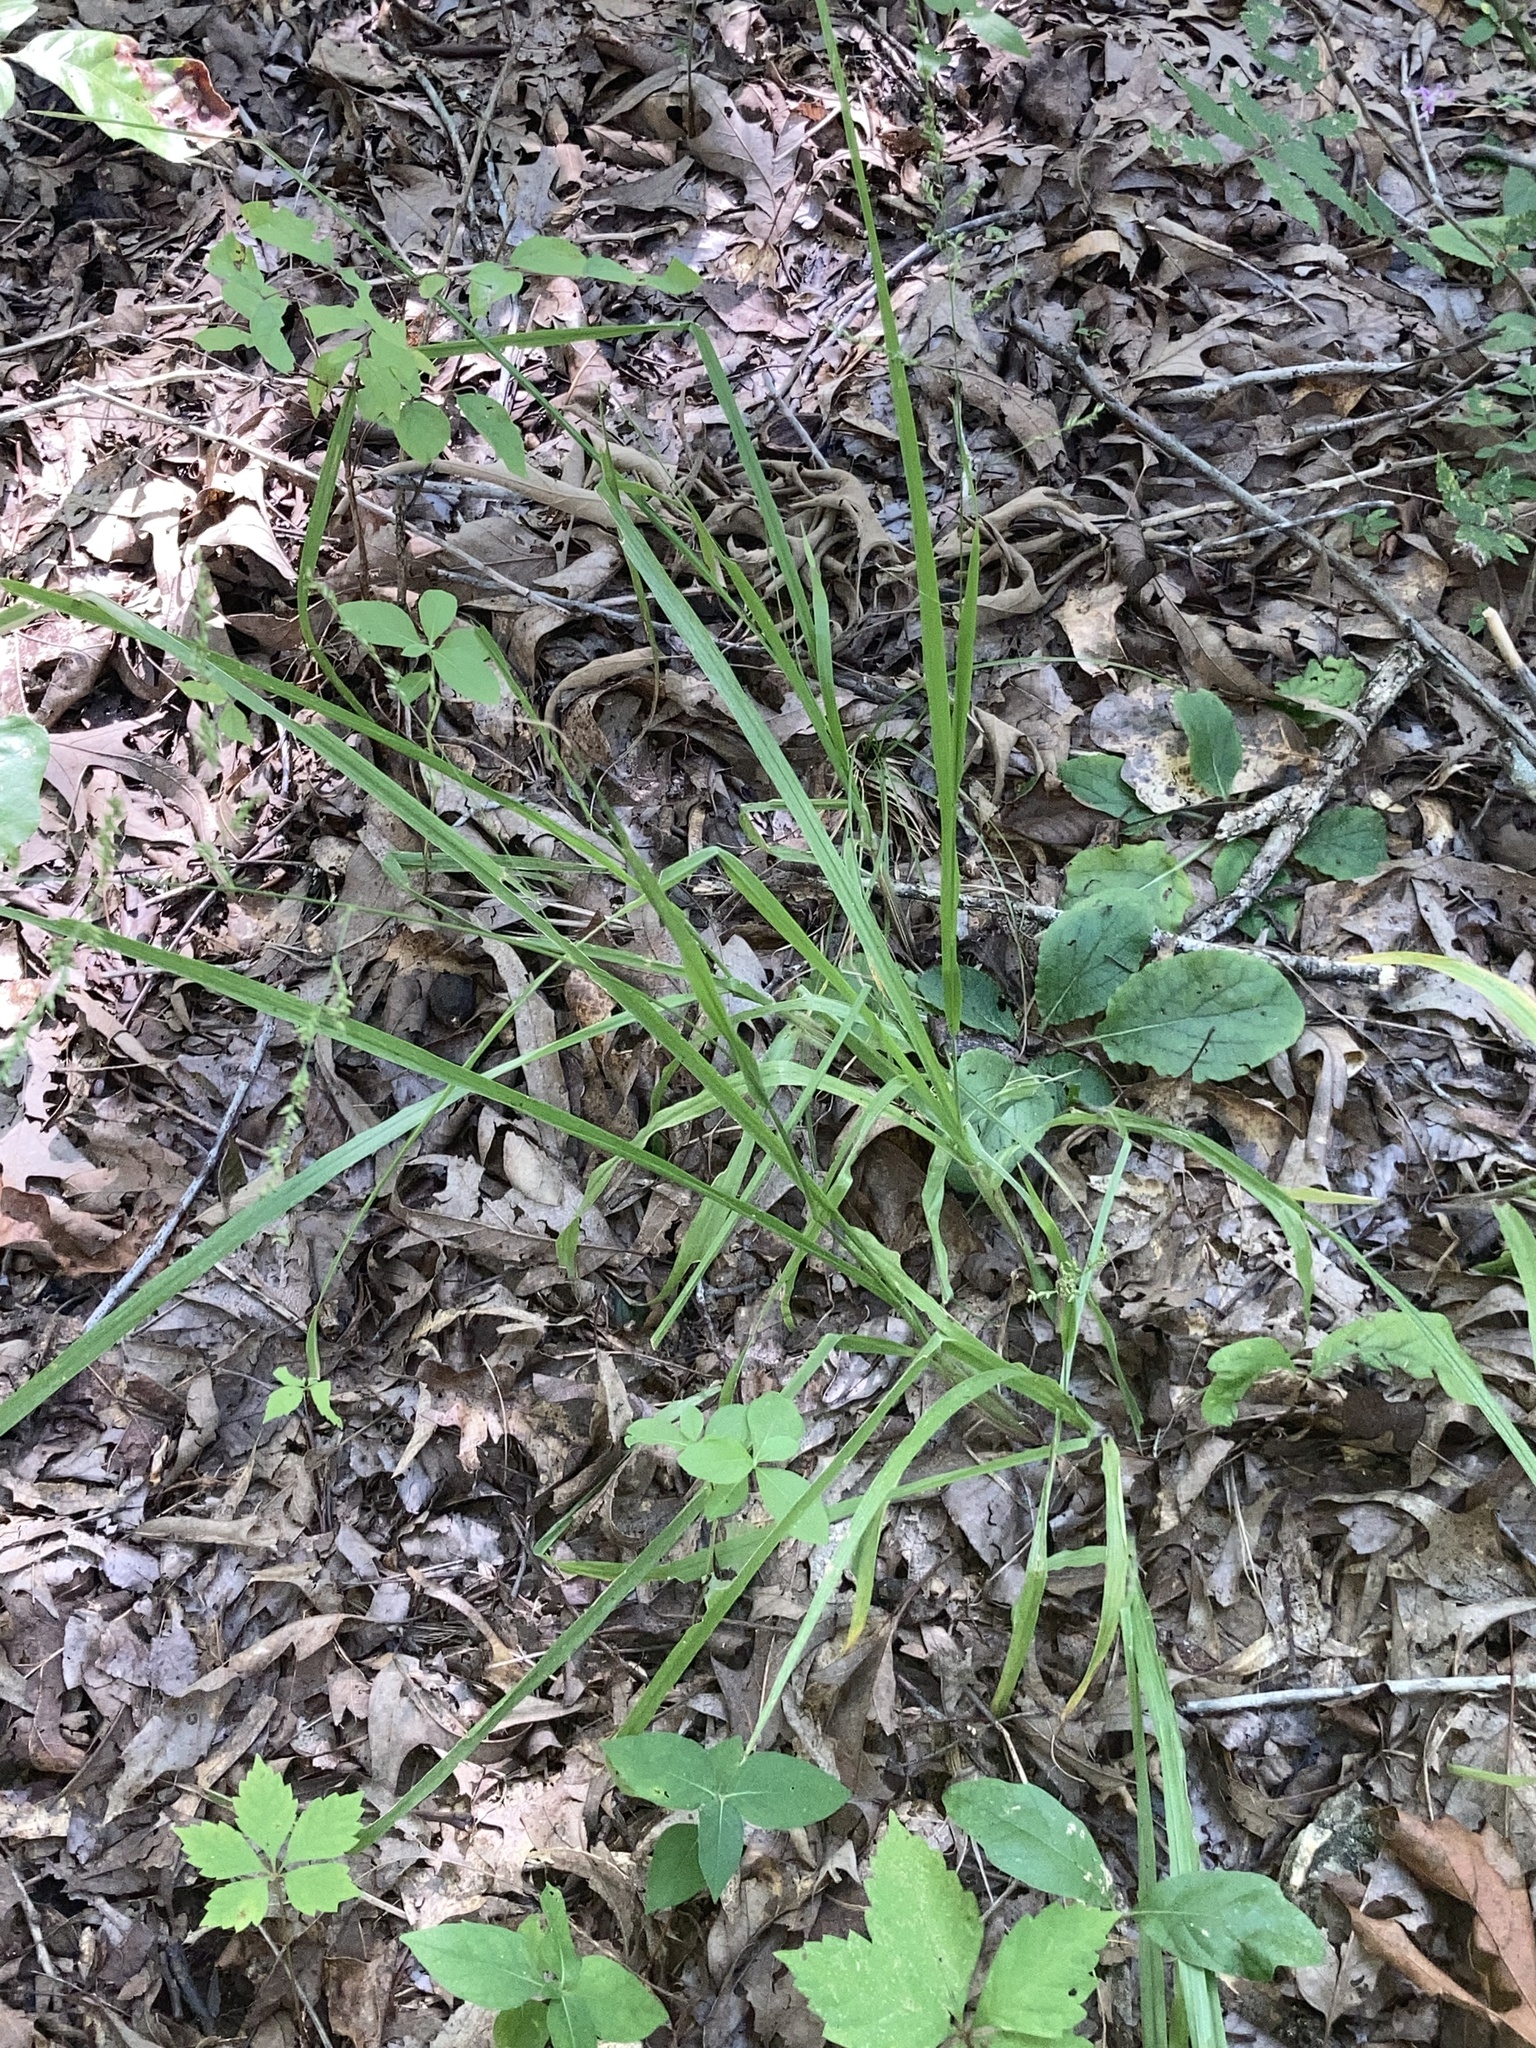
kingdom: Plantae
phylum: Tracheophyta
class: Liliopsida
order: Poales
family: Poaceae
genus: Coleataenia
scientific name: Coleataenia anceps
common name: Beaked panic grass
